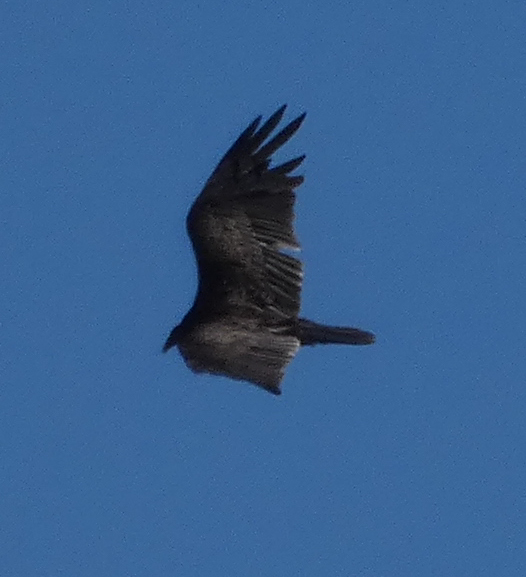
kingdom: Animalia
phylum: Chordata
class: Aves
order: Accipitriformes
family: Cathartidae
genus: Cathartes
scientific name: Cathartes aura
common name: Turkey vulture
